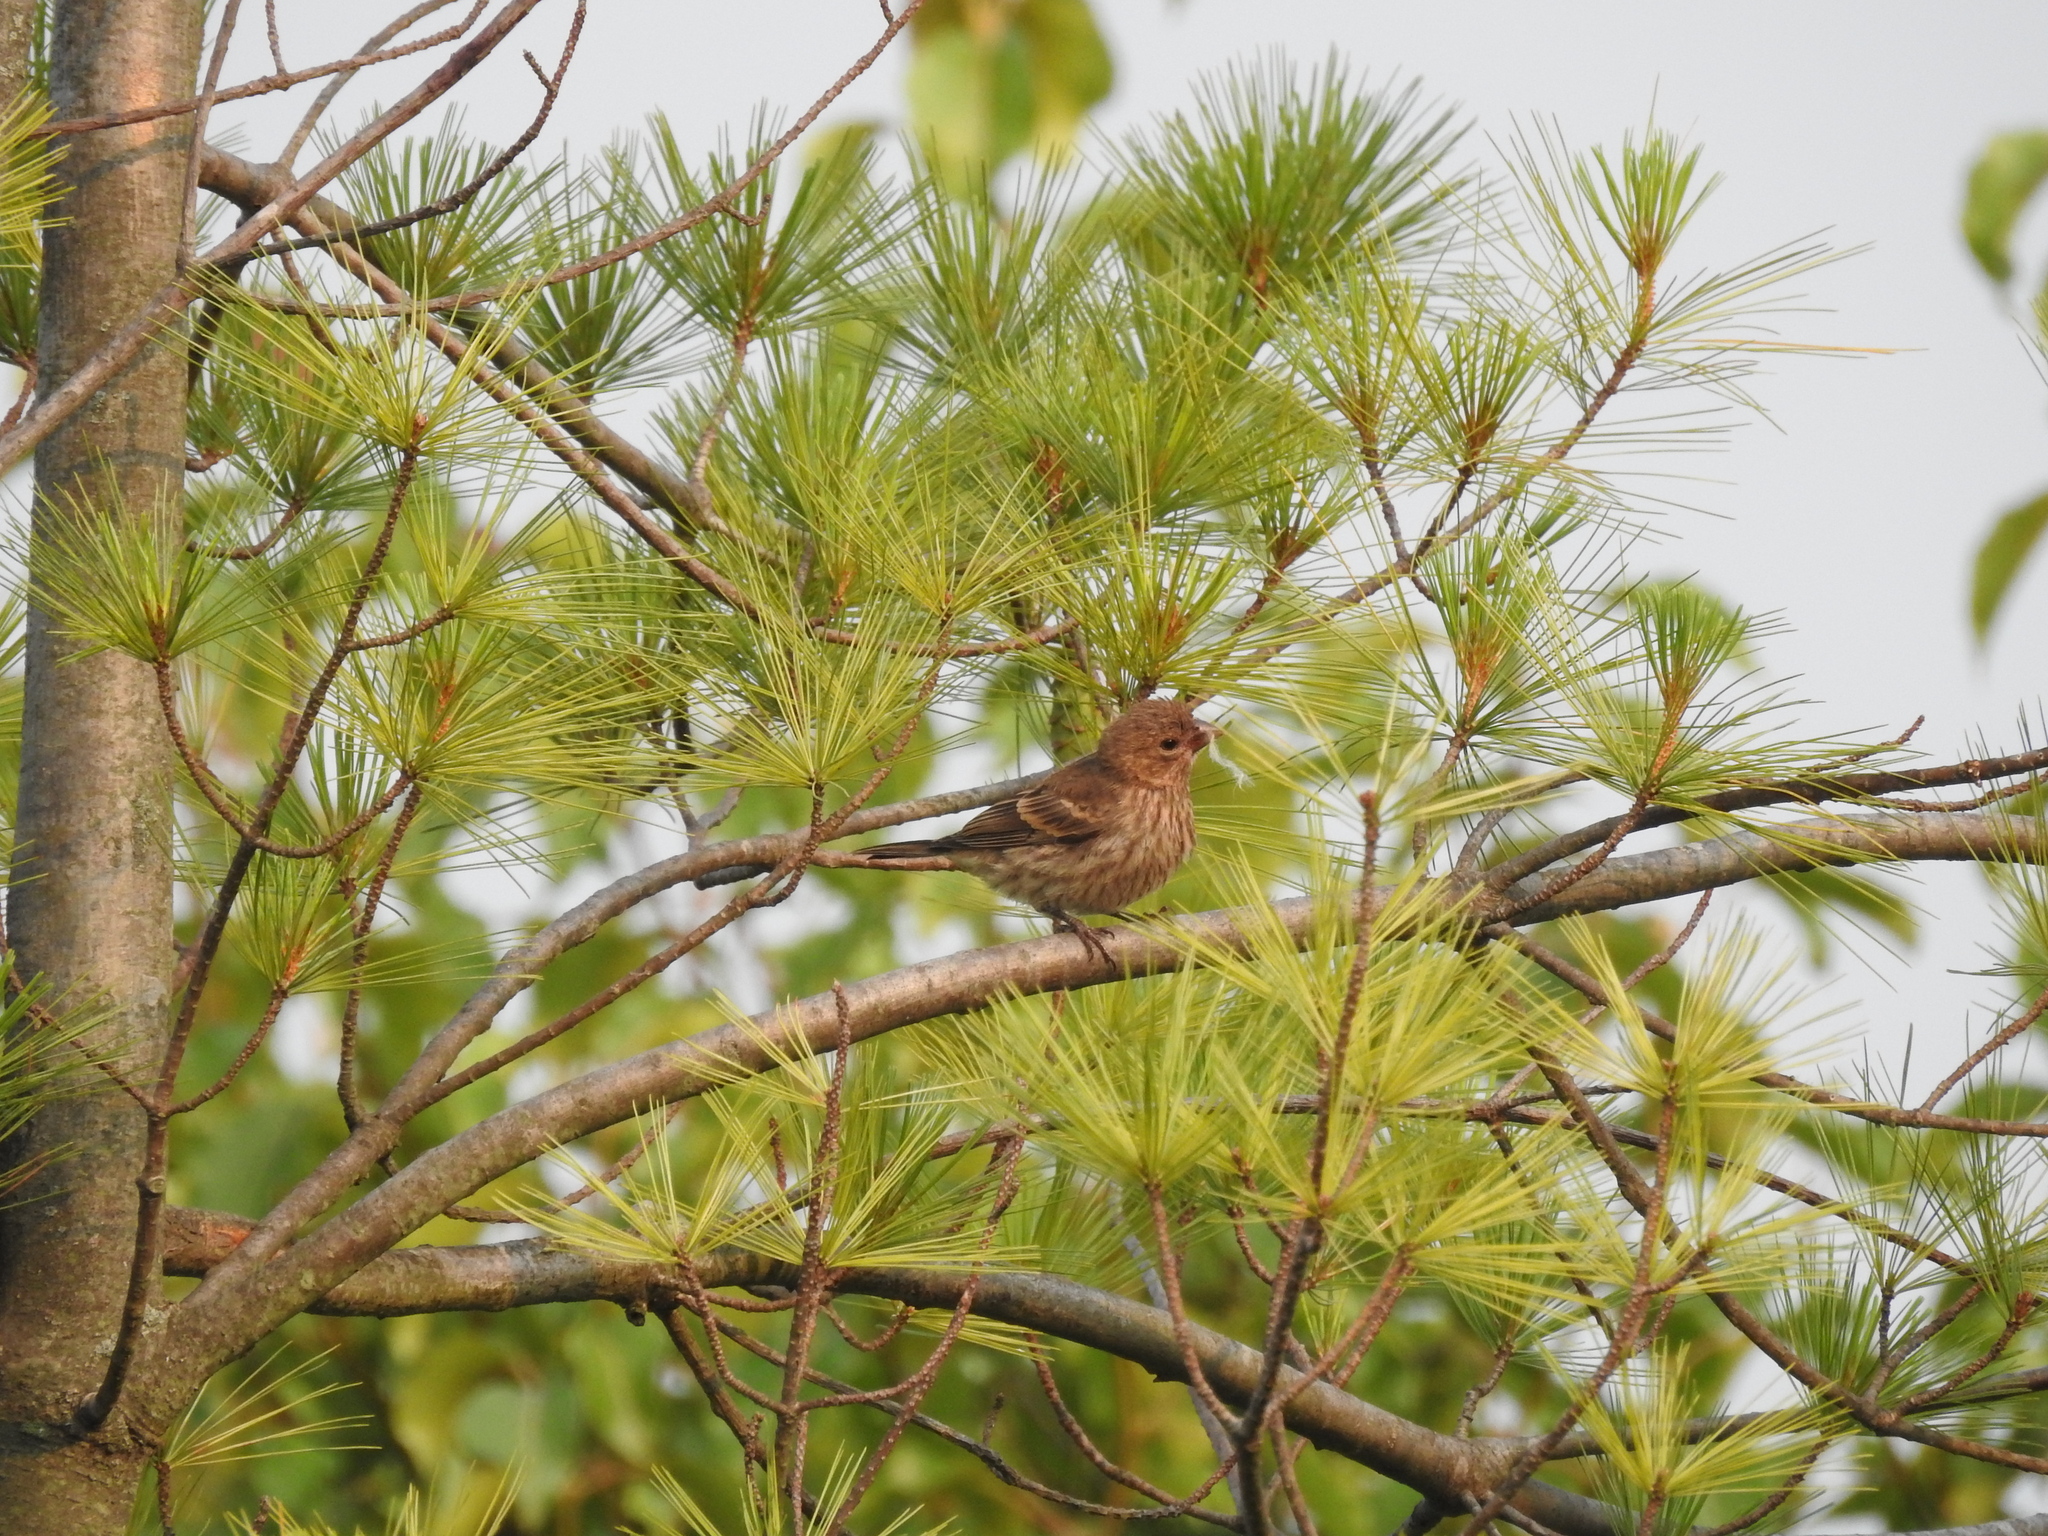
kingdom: Animalia
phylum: Chordata
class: Aves
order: Passeriformes
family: Fringillidae
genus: Haemorhous
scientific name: Haemorhous mexicanus
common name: House finch
